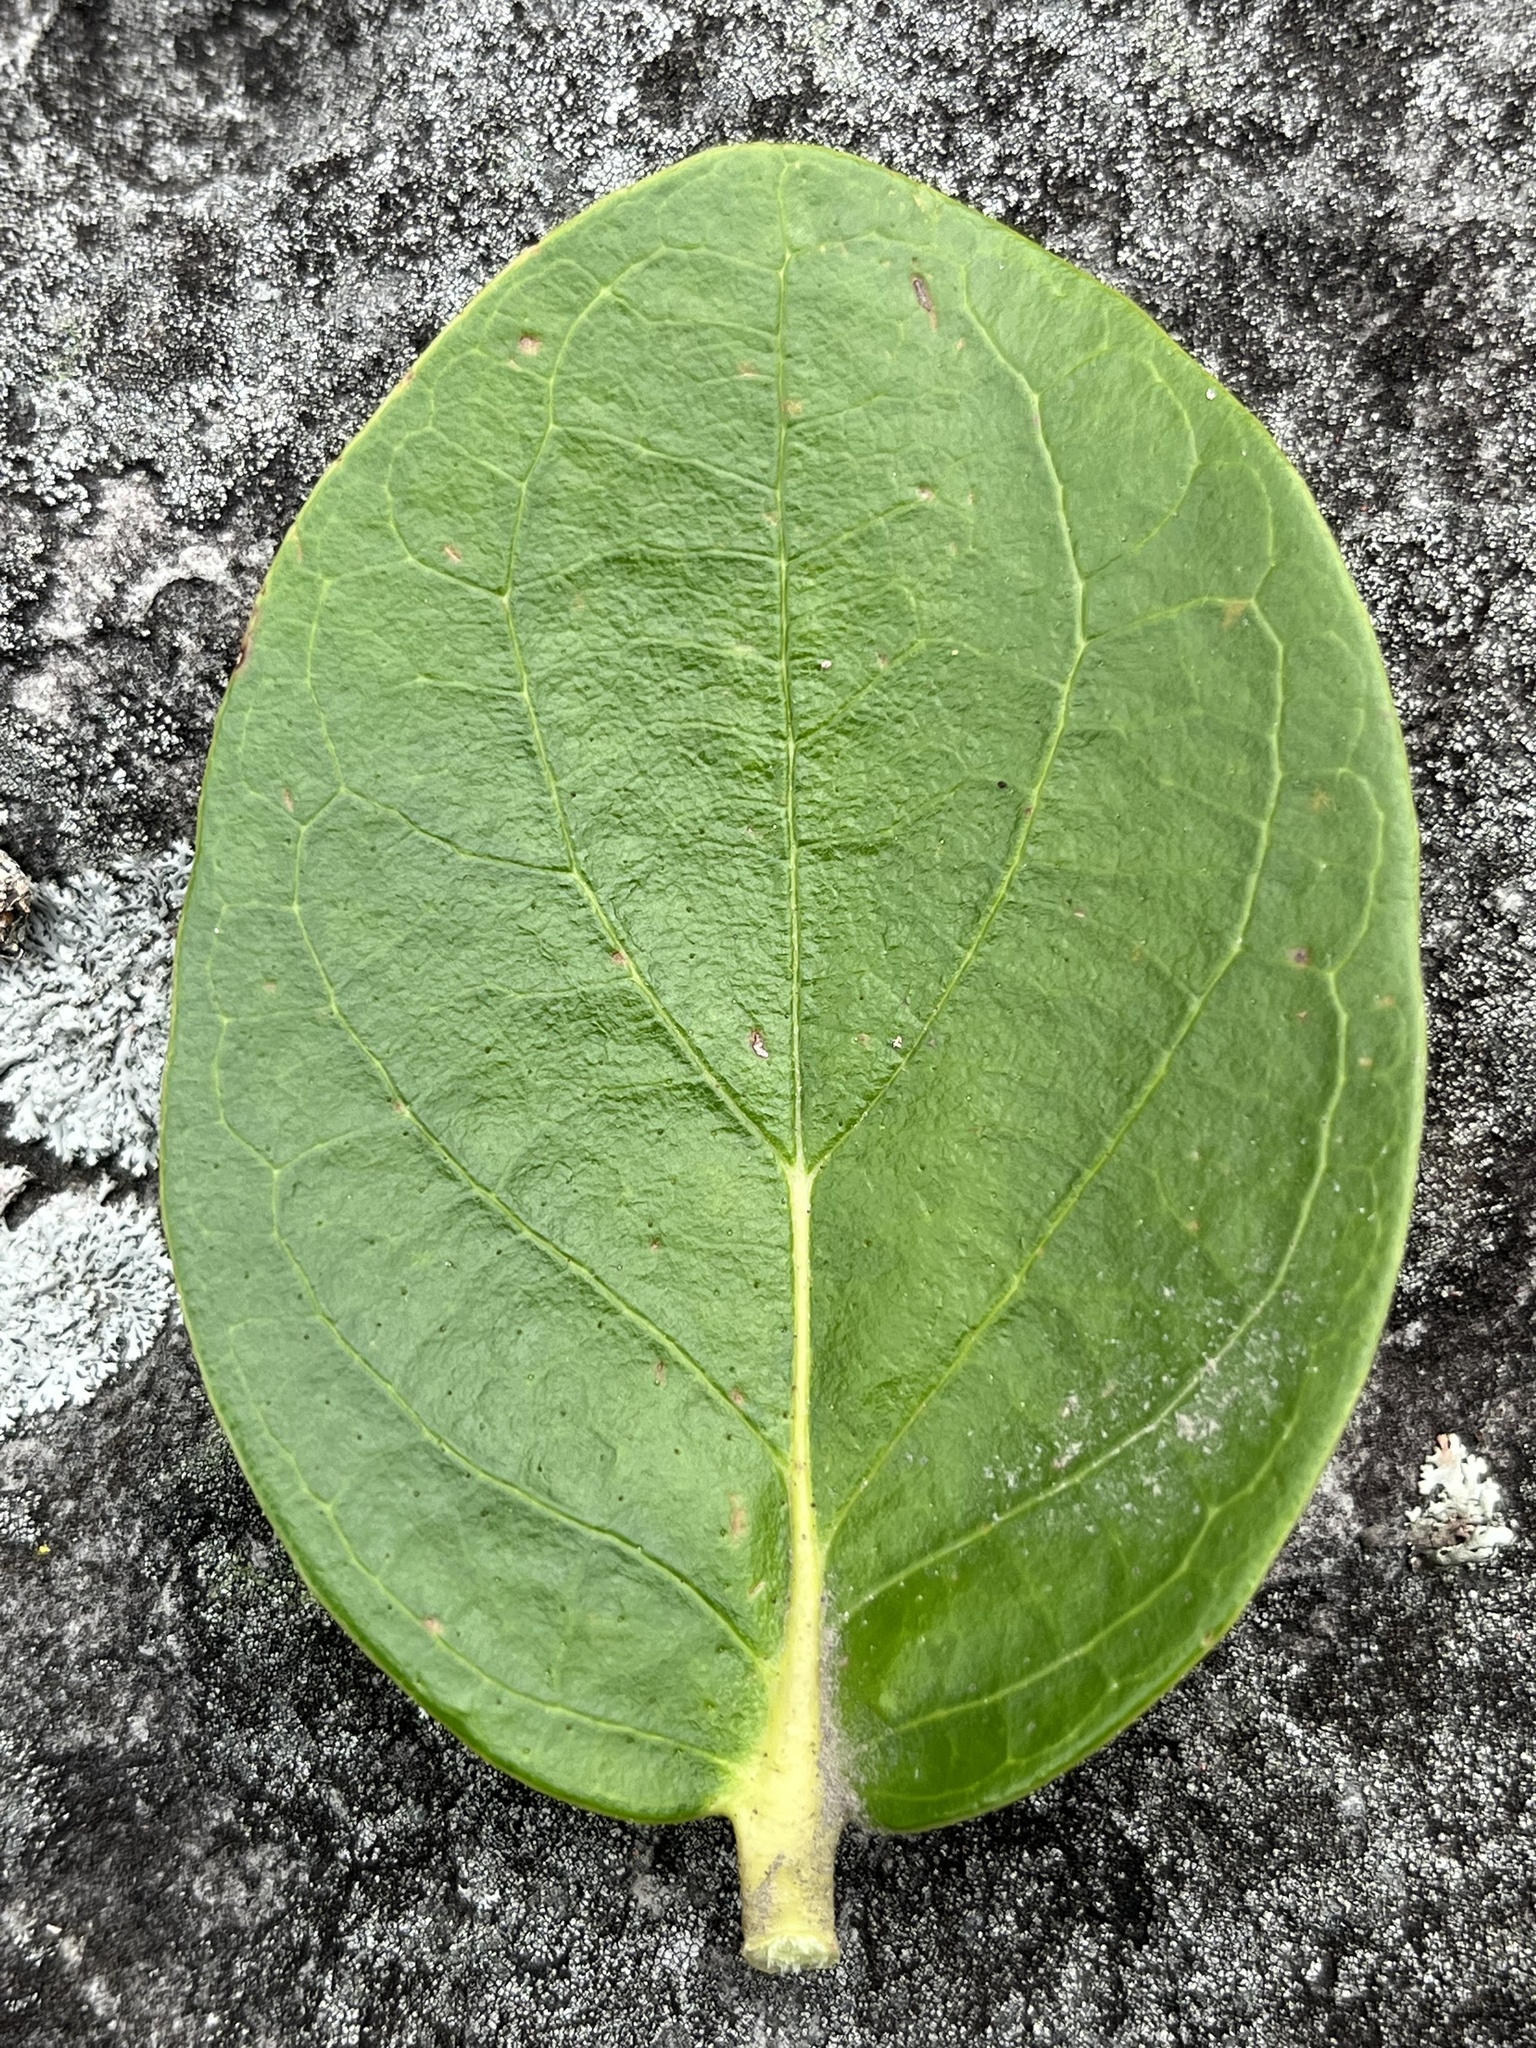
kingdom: Plantae
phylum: Tracheophyta
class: Magnoliopsida
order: Ericales
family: Ericaceae
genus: Macleania
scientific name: Macleania rupestris
